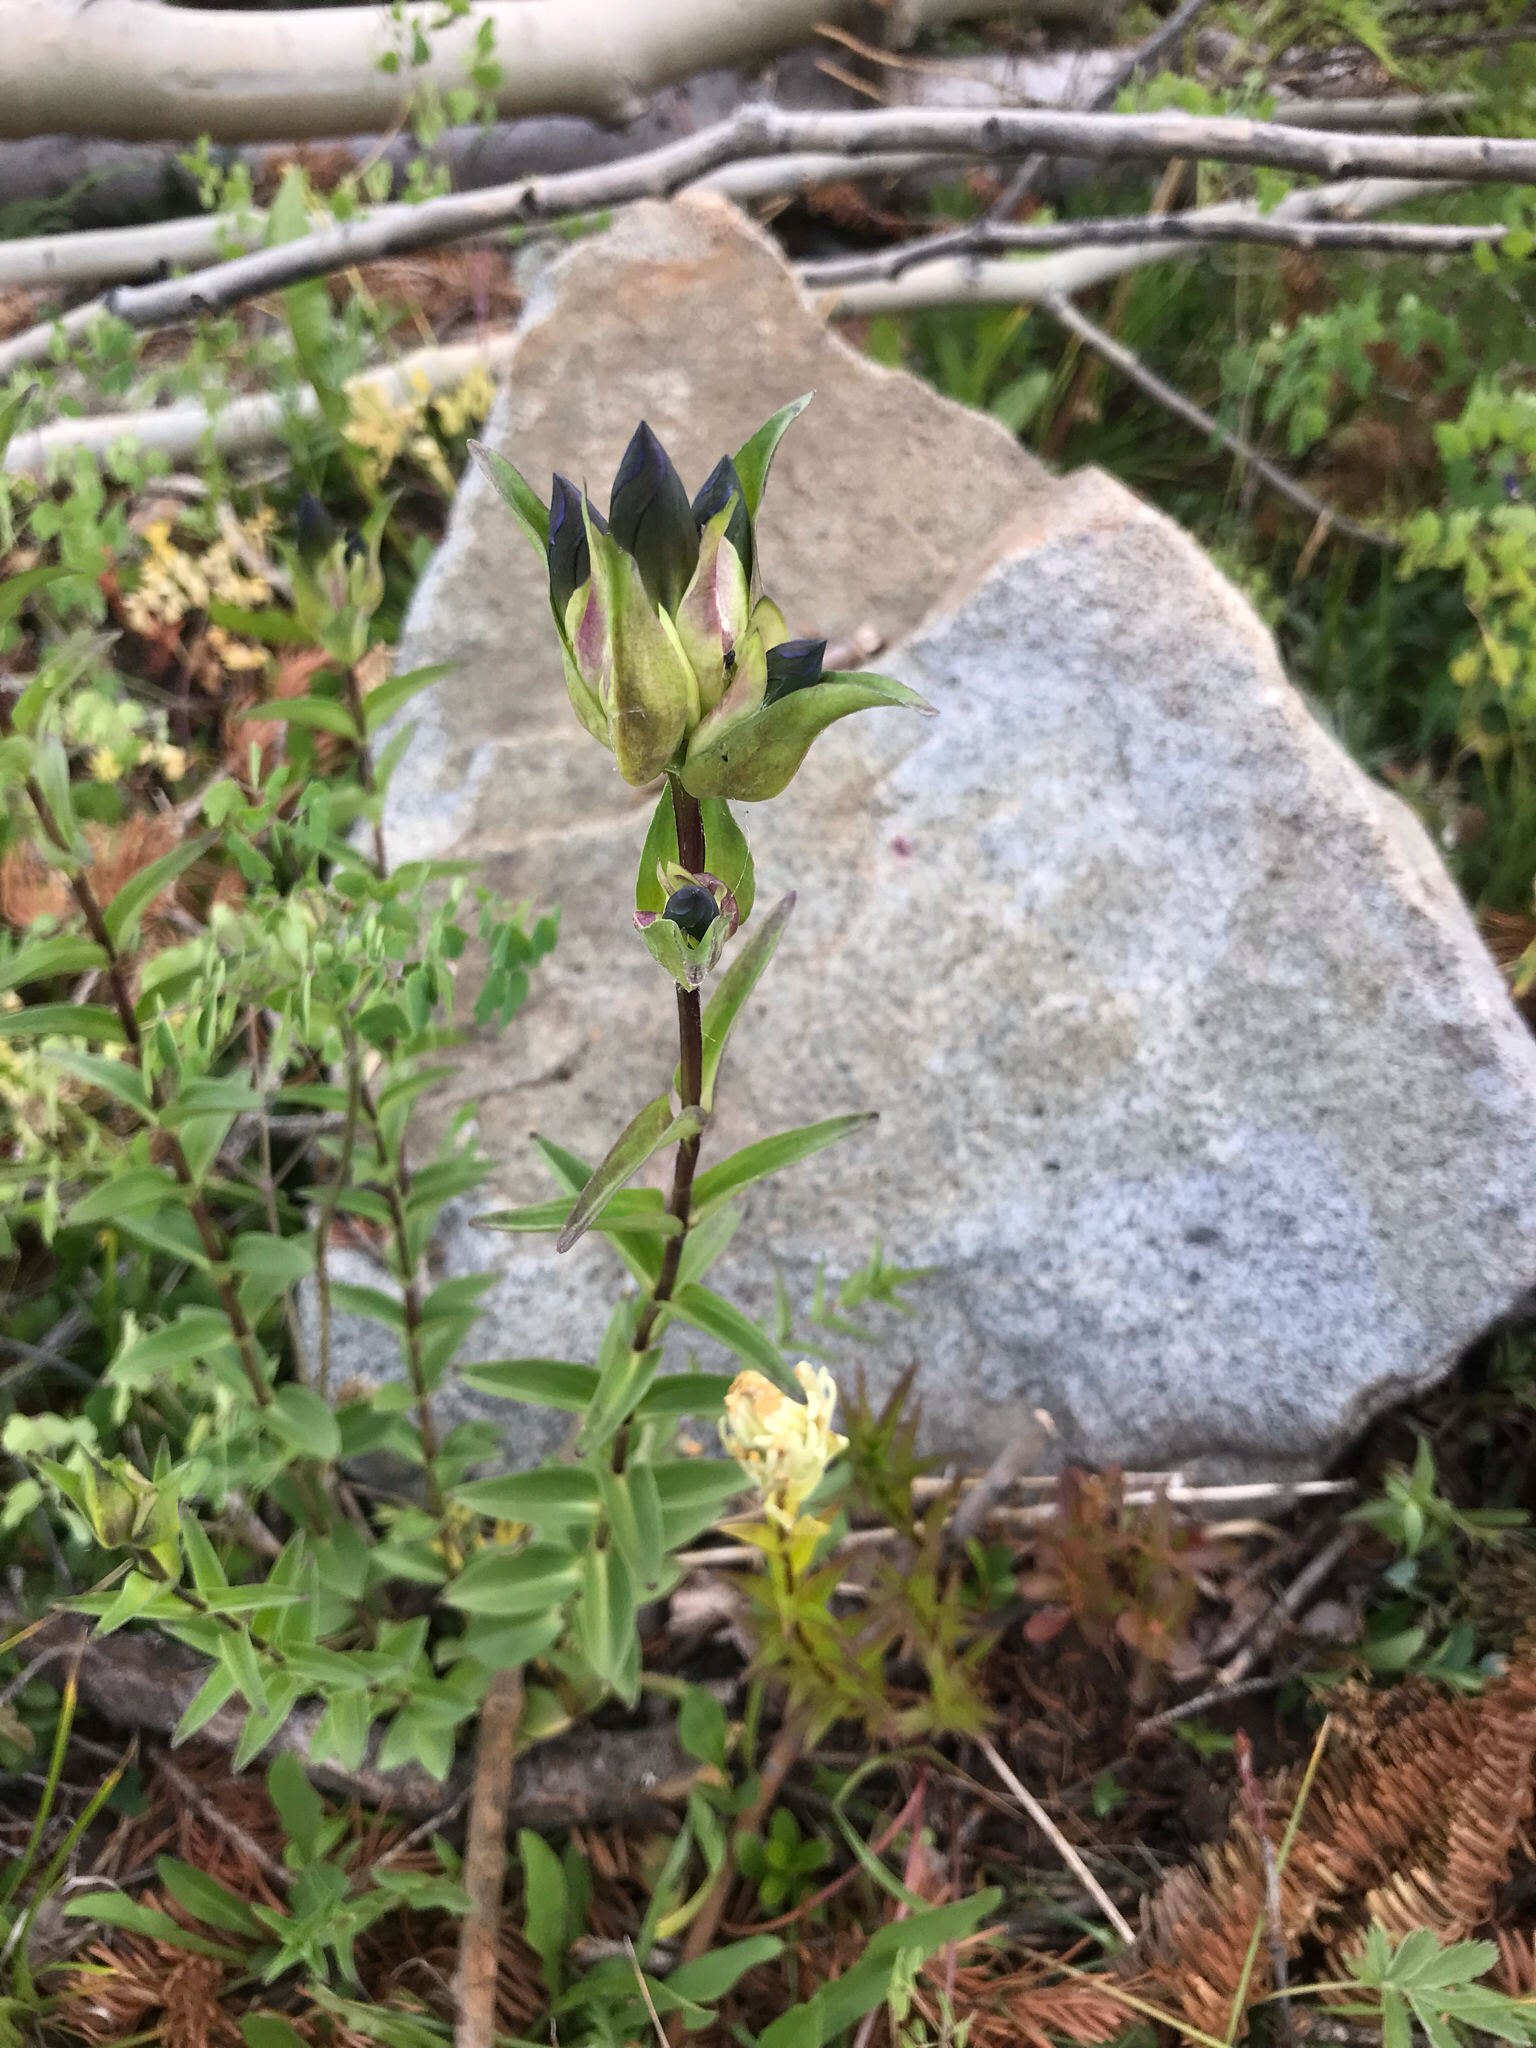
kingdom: Plantae
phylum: Tracheophyta
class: Magnoliopsida
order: Gentianales
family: Gentianaceae
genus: Gentiana
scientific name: Gentiana parryi
